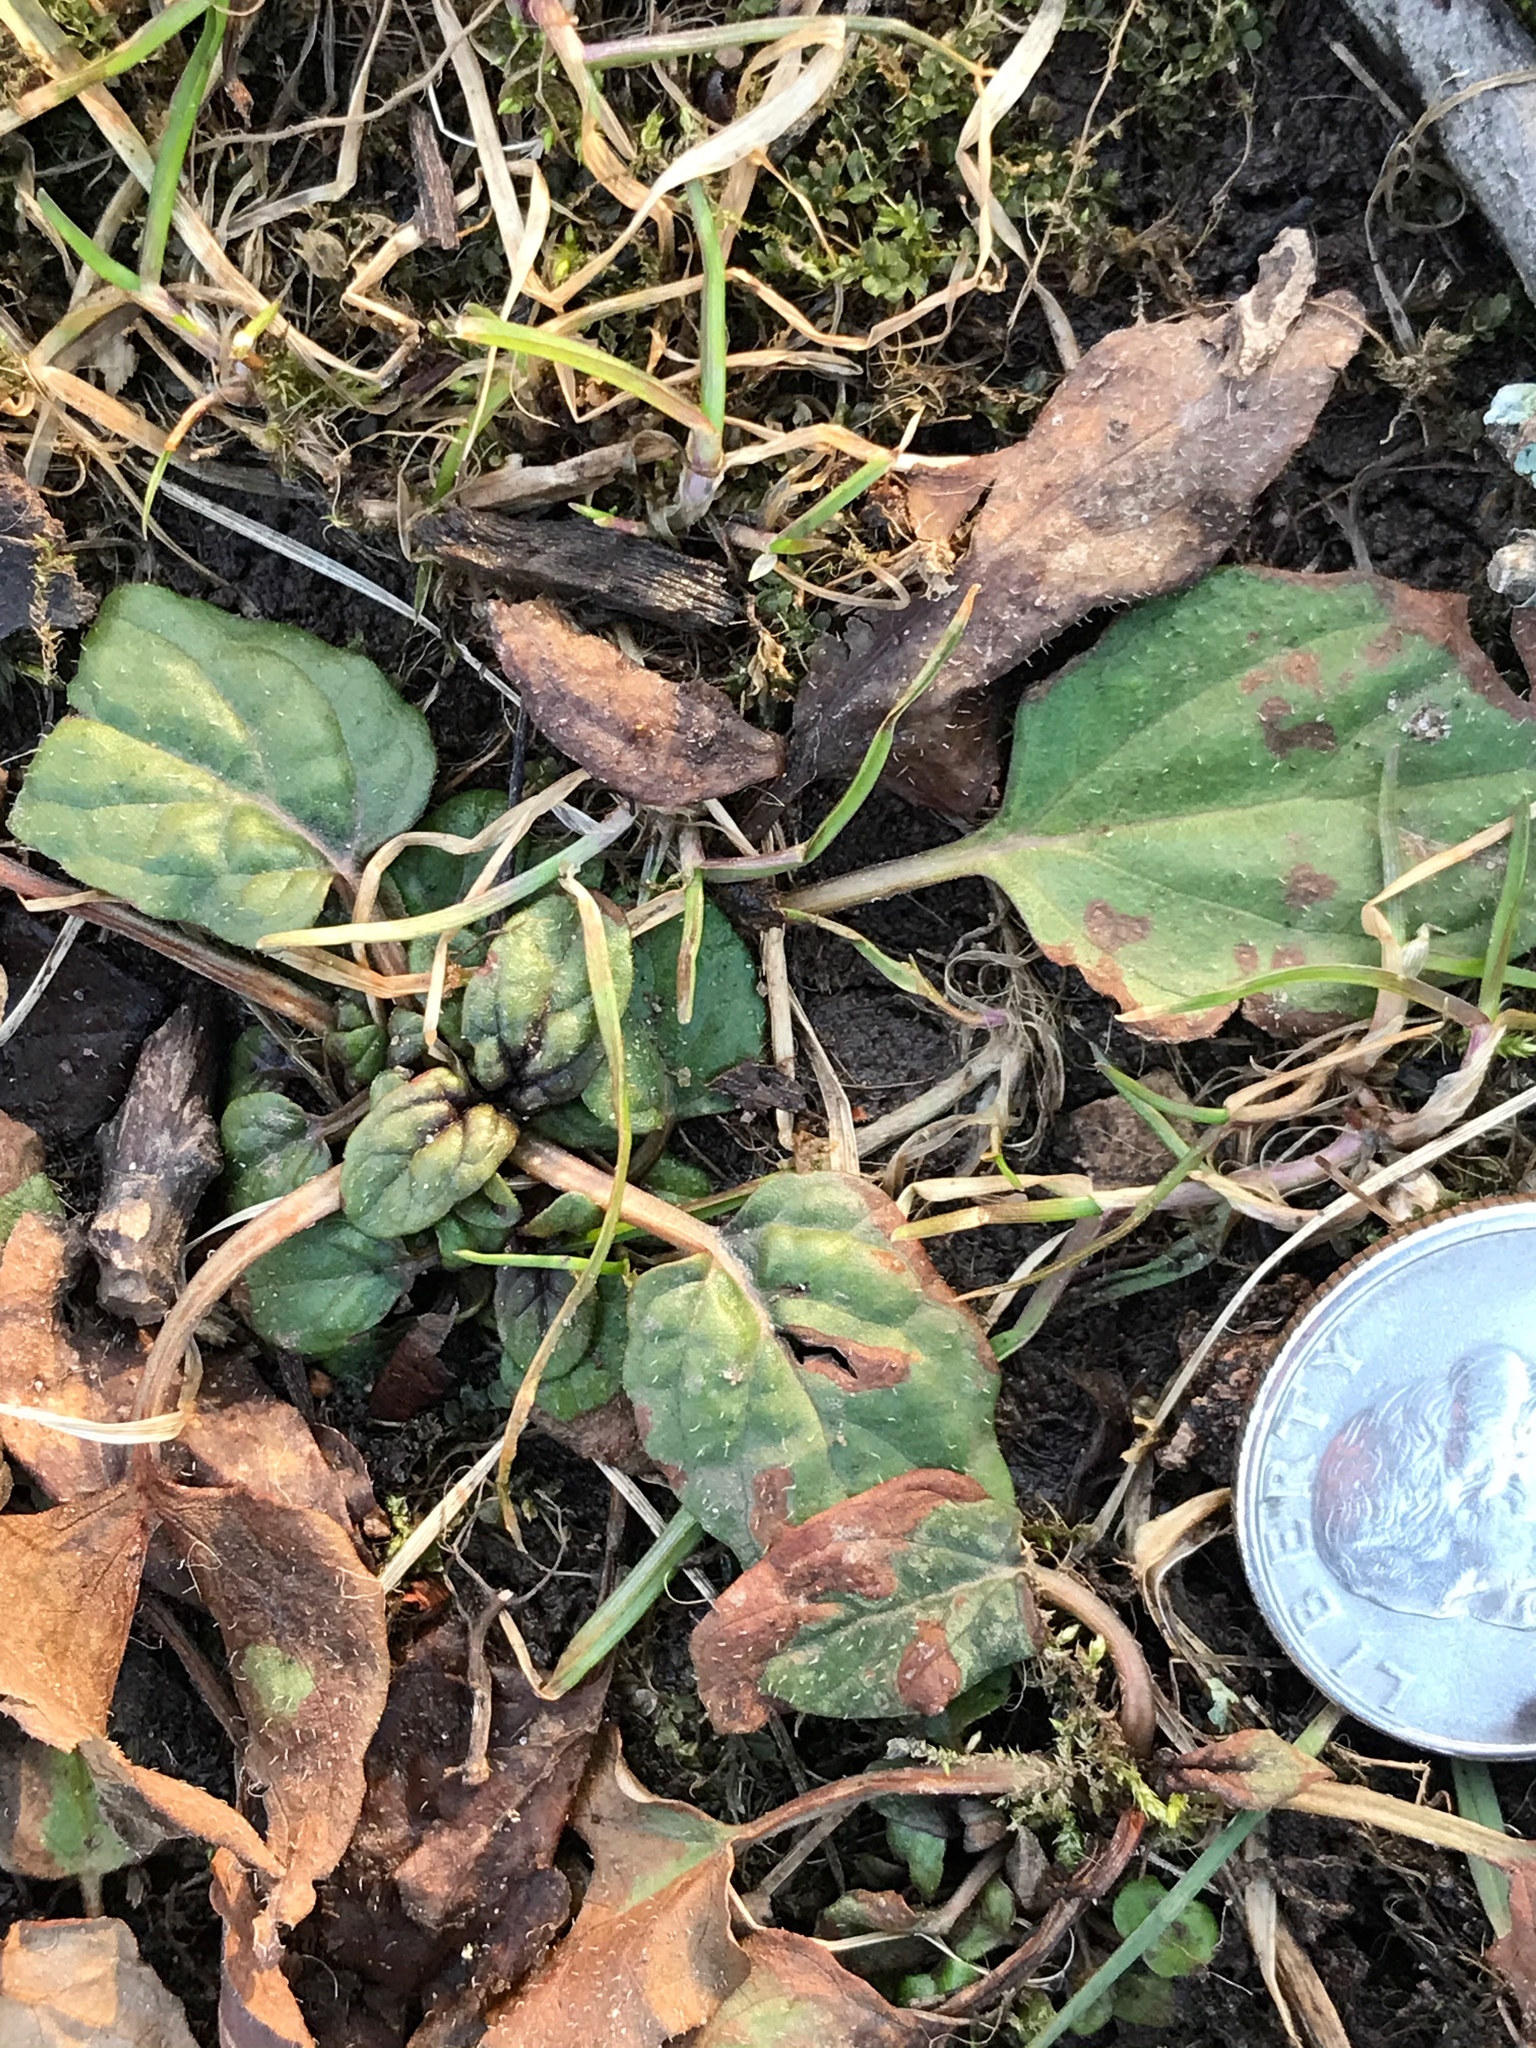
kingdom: Plantae
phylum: Tracheophyta
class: Magnoliopsida
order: Lamiales
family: Lamiaceae
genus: Prunella
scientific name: Prunella vulgaris
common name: Heal-all
